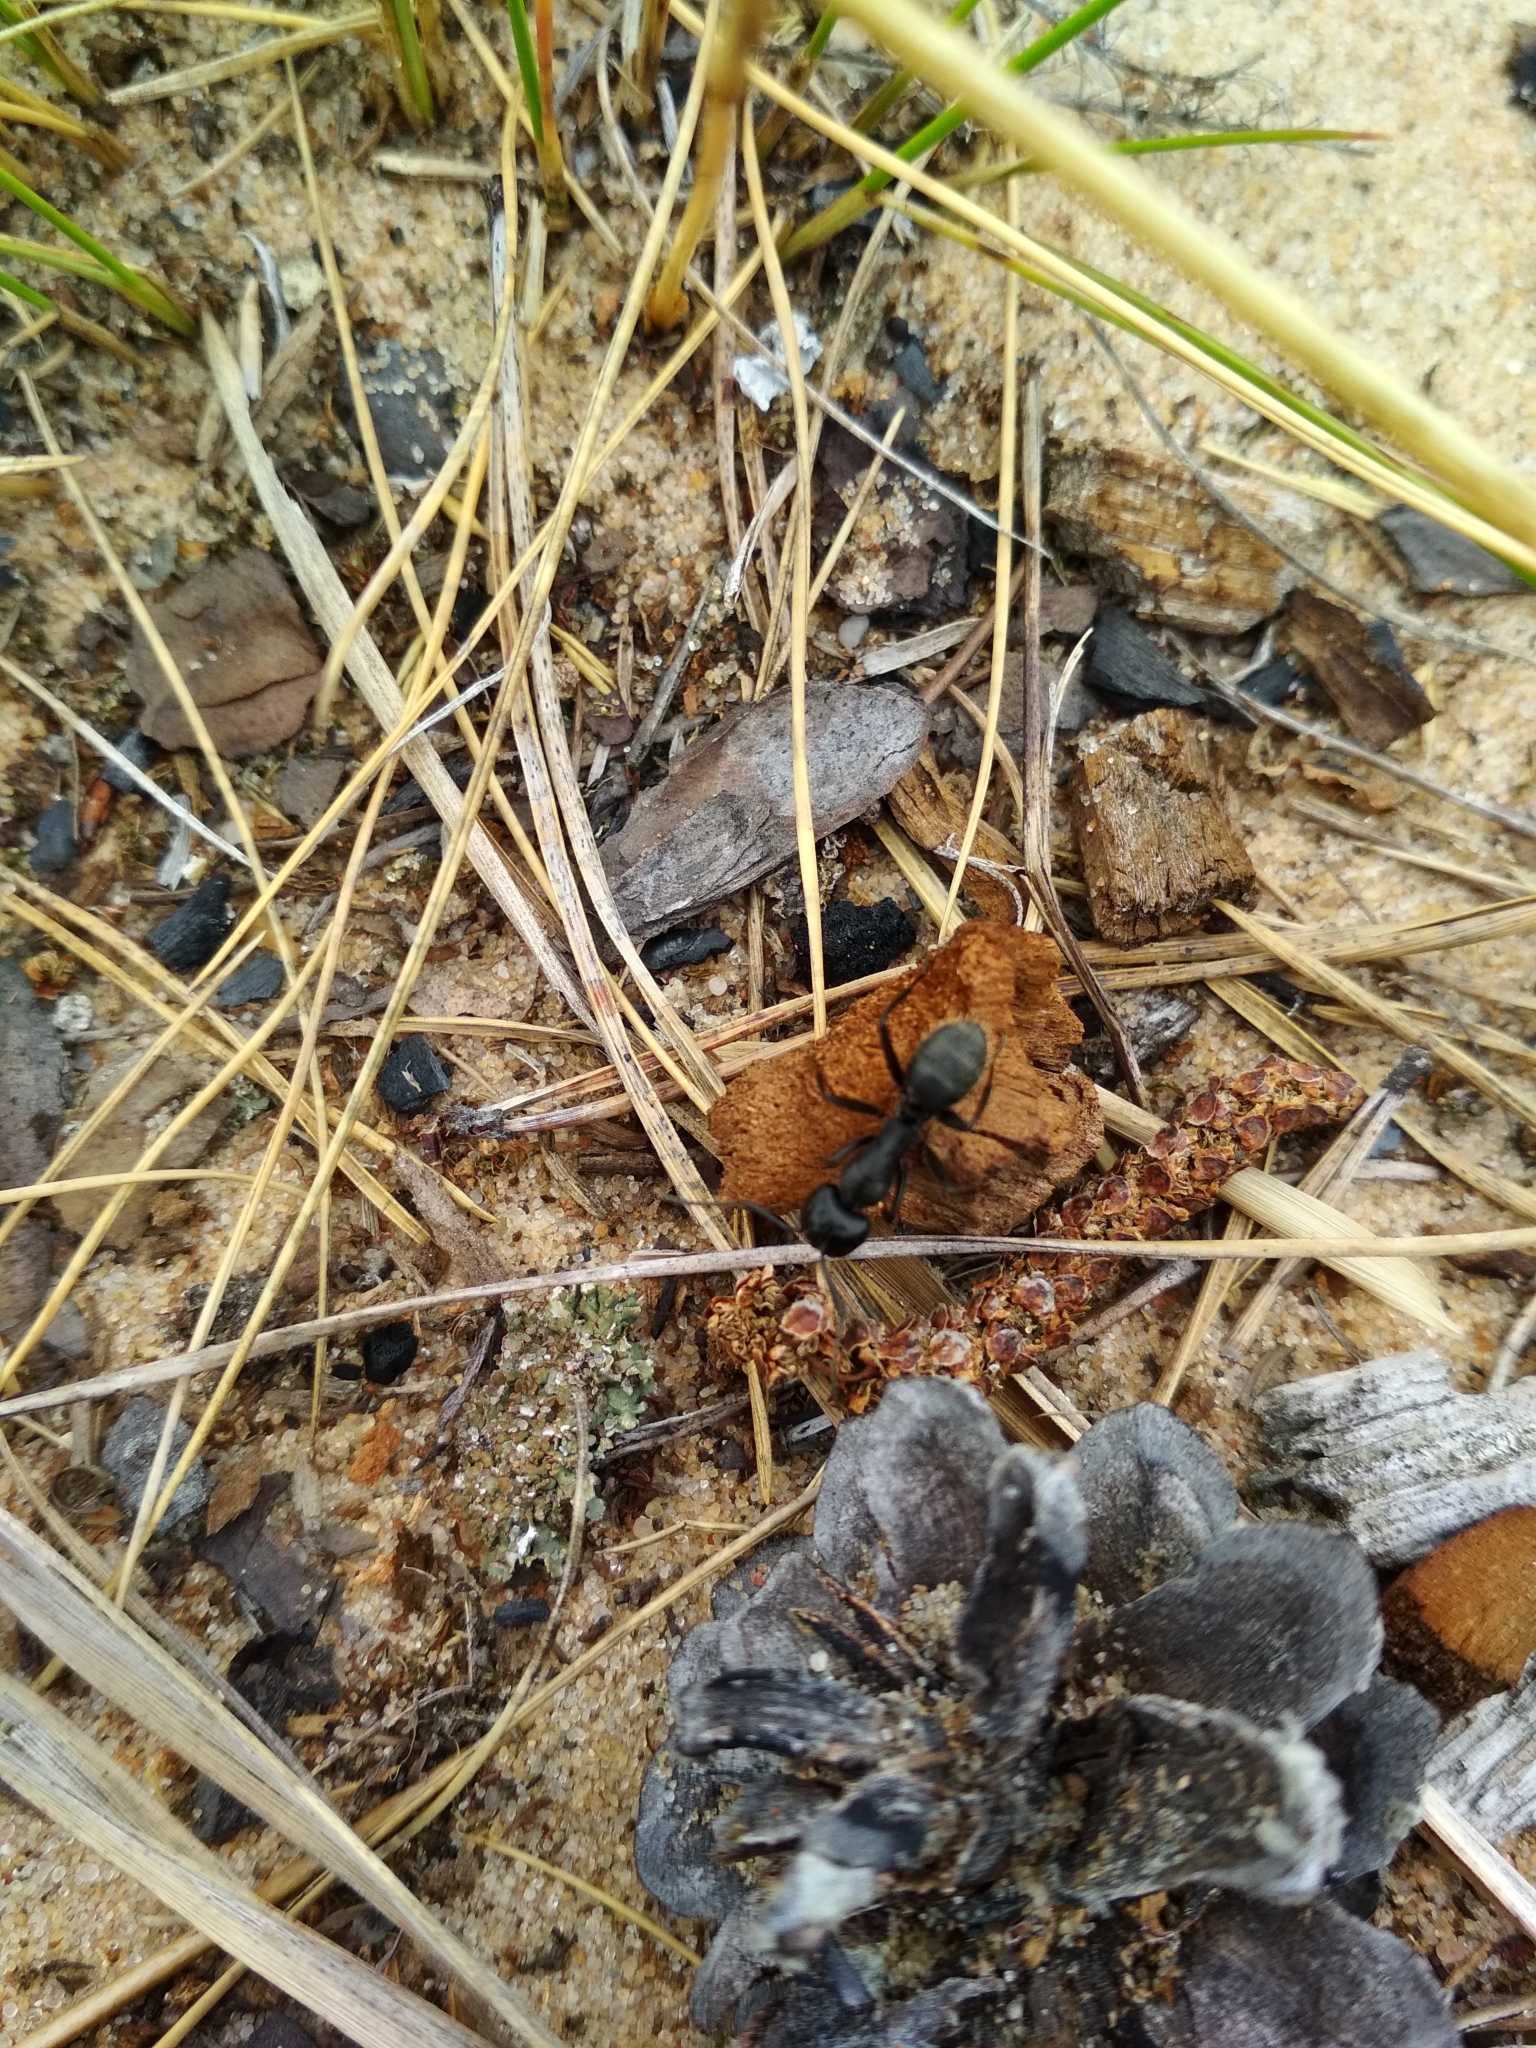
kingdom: Animalia
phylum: Arthropoda
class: Insecta
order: Hymenoptera
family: Formicidae
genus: Camponotus
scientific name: Camponotus vagus
